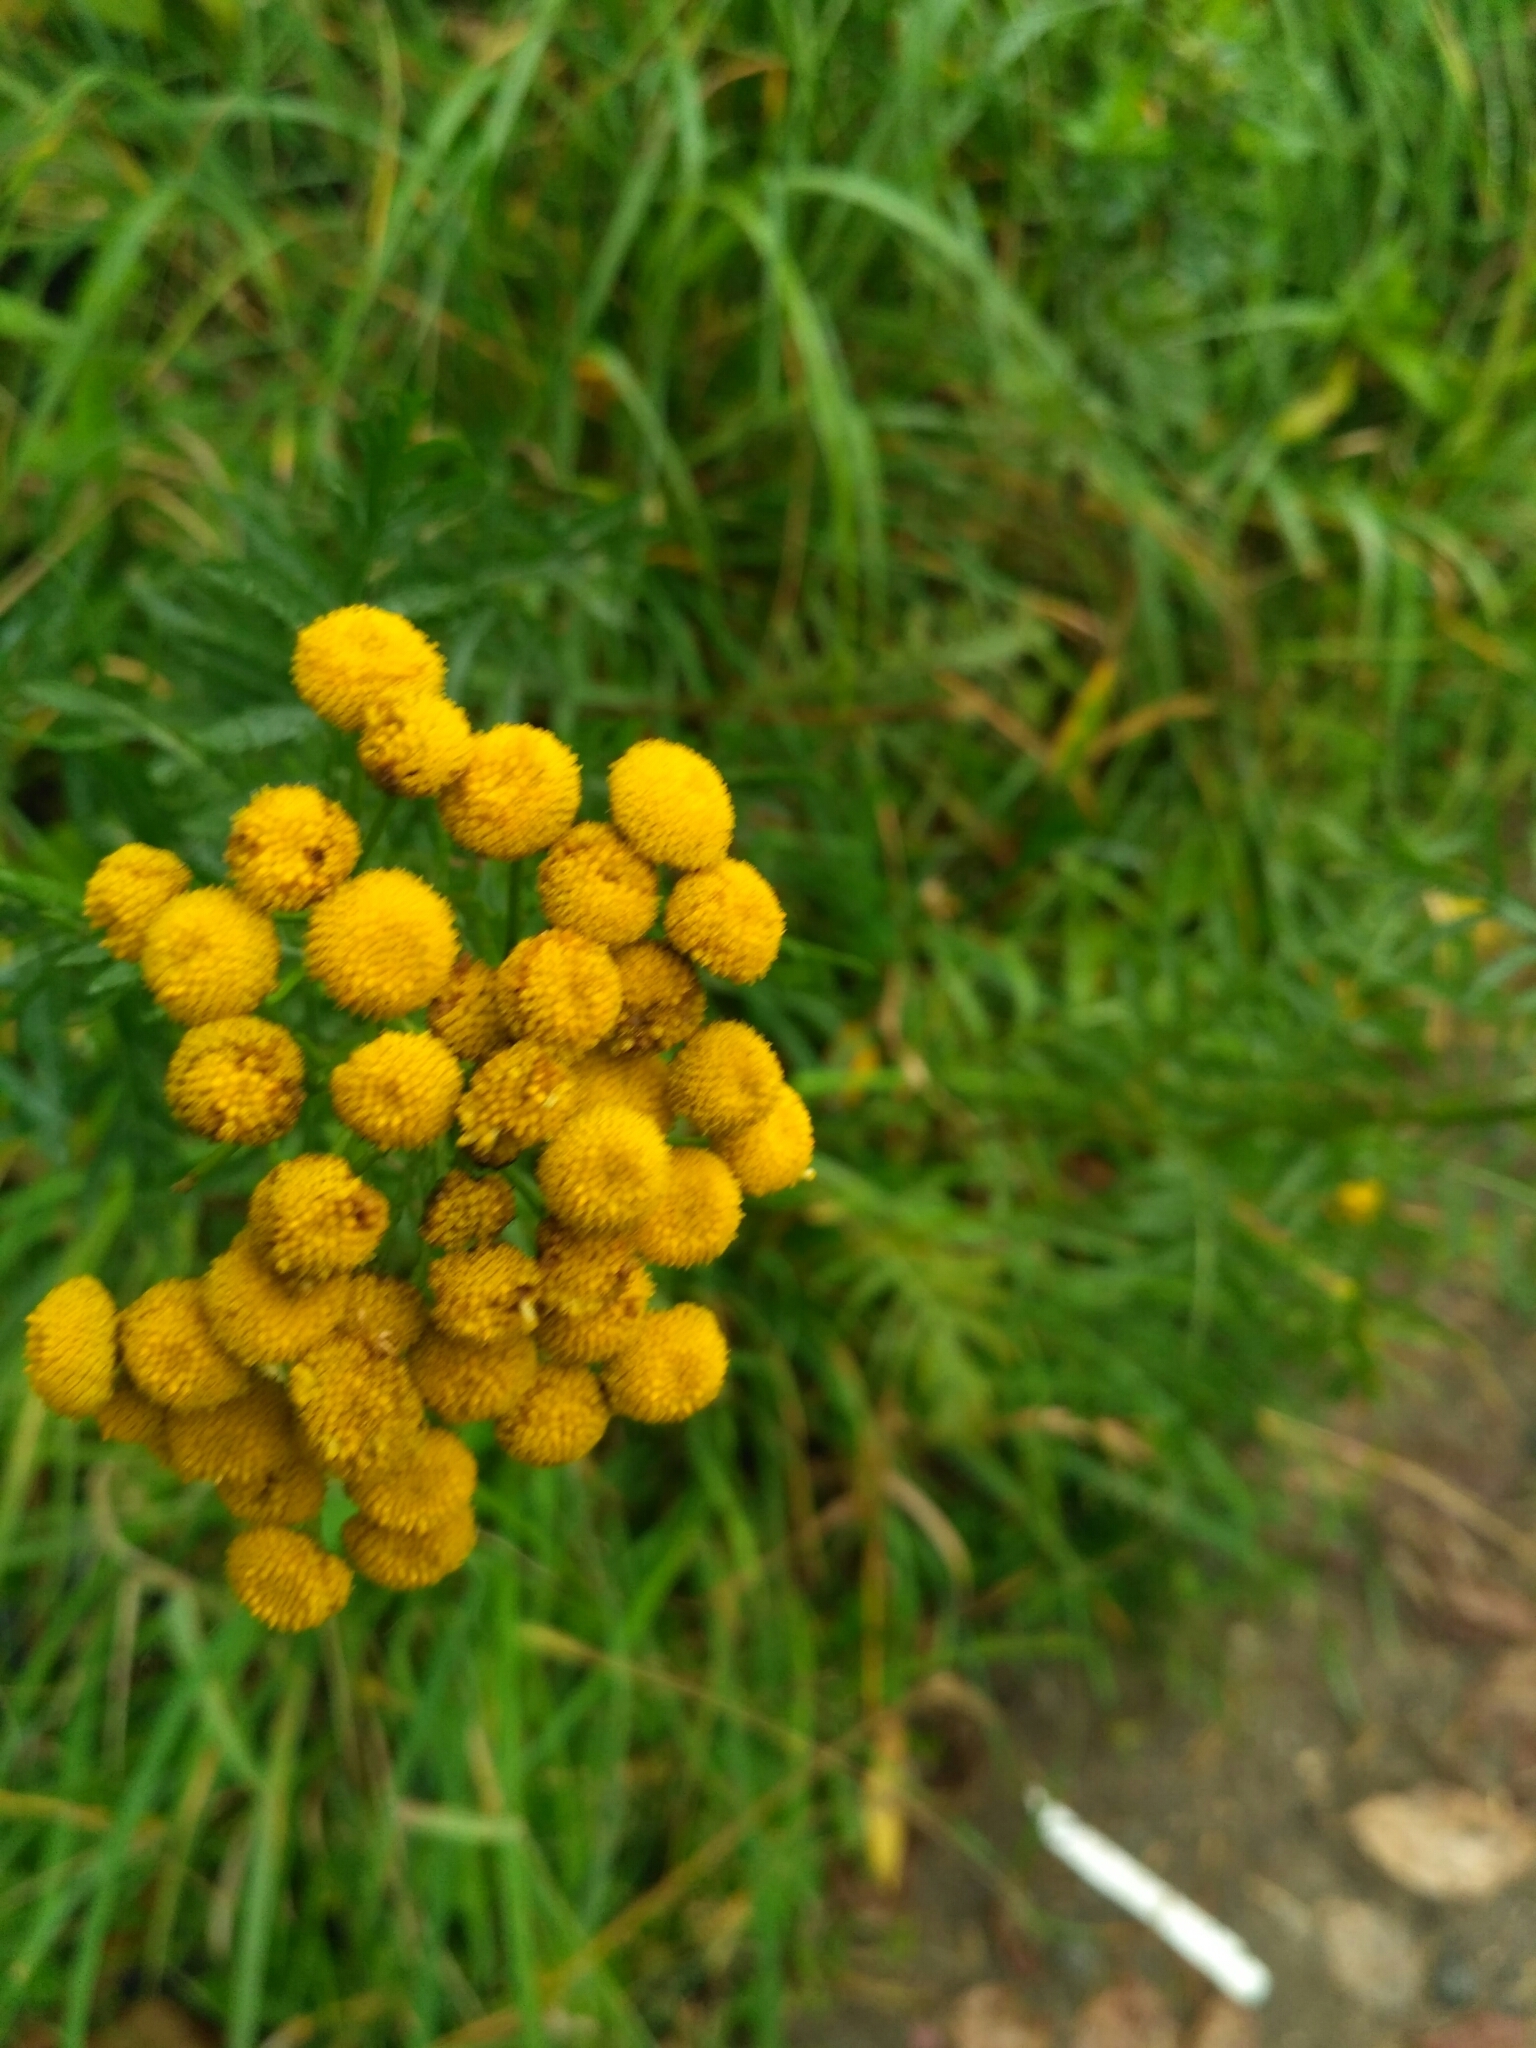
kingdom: Plantae
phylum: Tracheophyta
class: Magnoliopsida
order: Asterales
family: Asteraceae
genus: Tanacetum
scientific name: Tanacetum vulgare
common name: Common tansy
